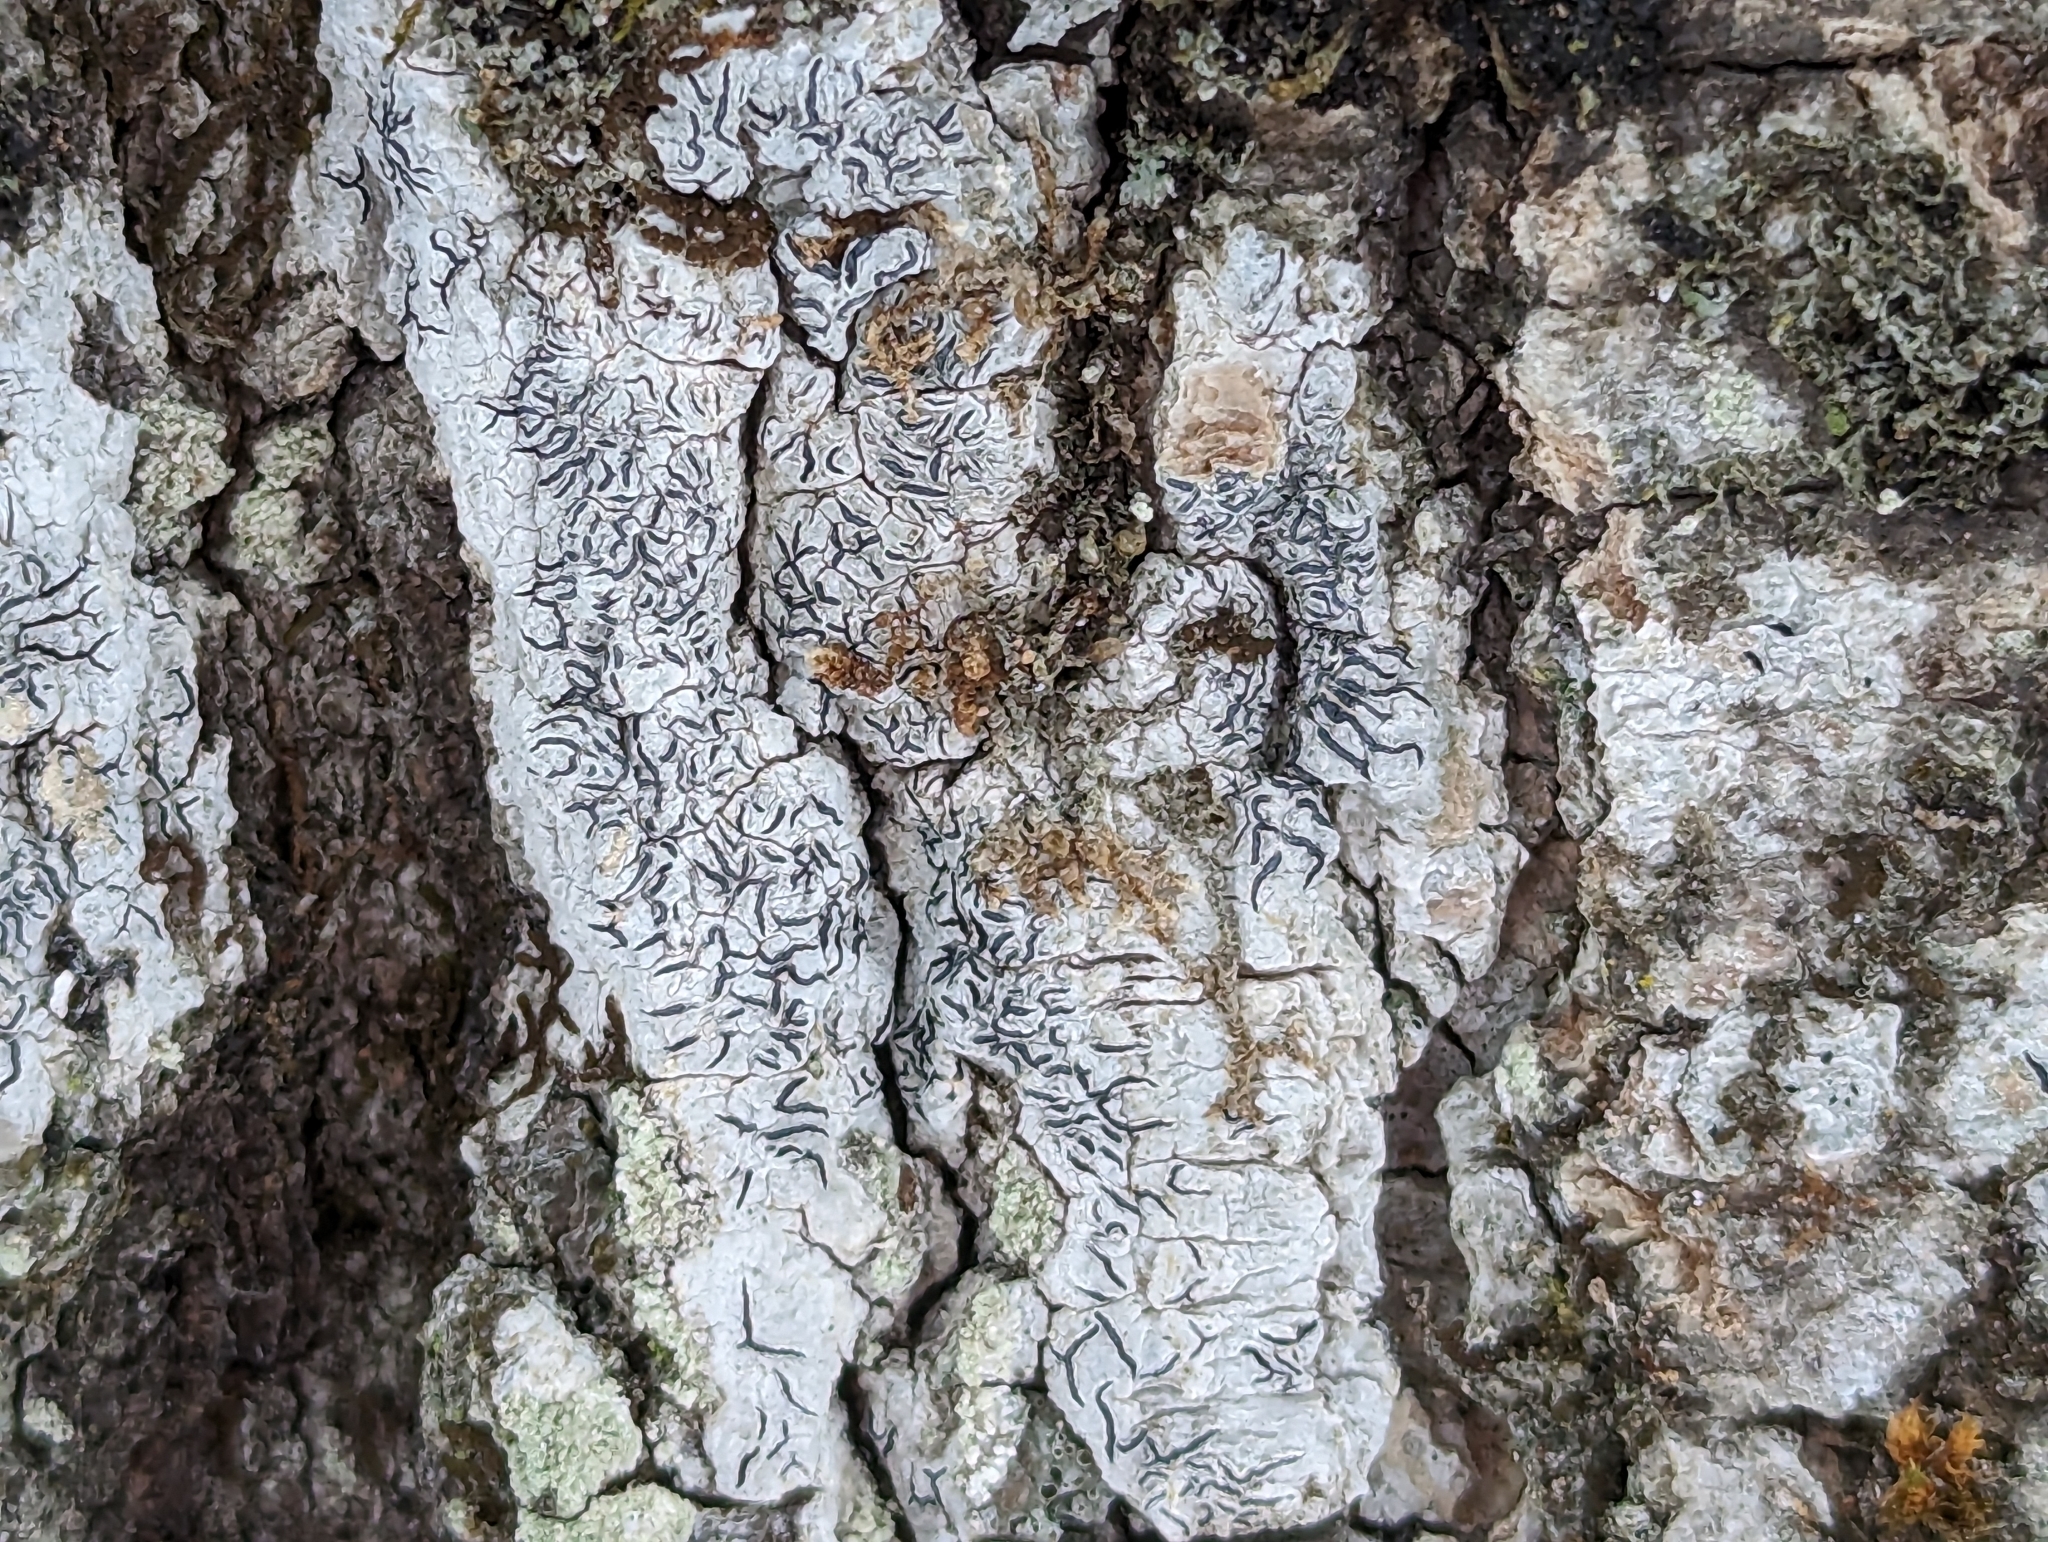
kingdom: Fungi
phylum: Ascomycota
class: Lecanoromycetes
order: Ostropales
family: Graphidaceae
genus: Graphis
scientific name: Graphis scripta
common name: Script lichen
